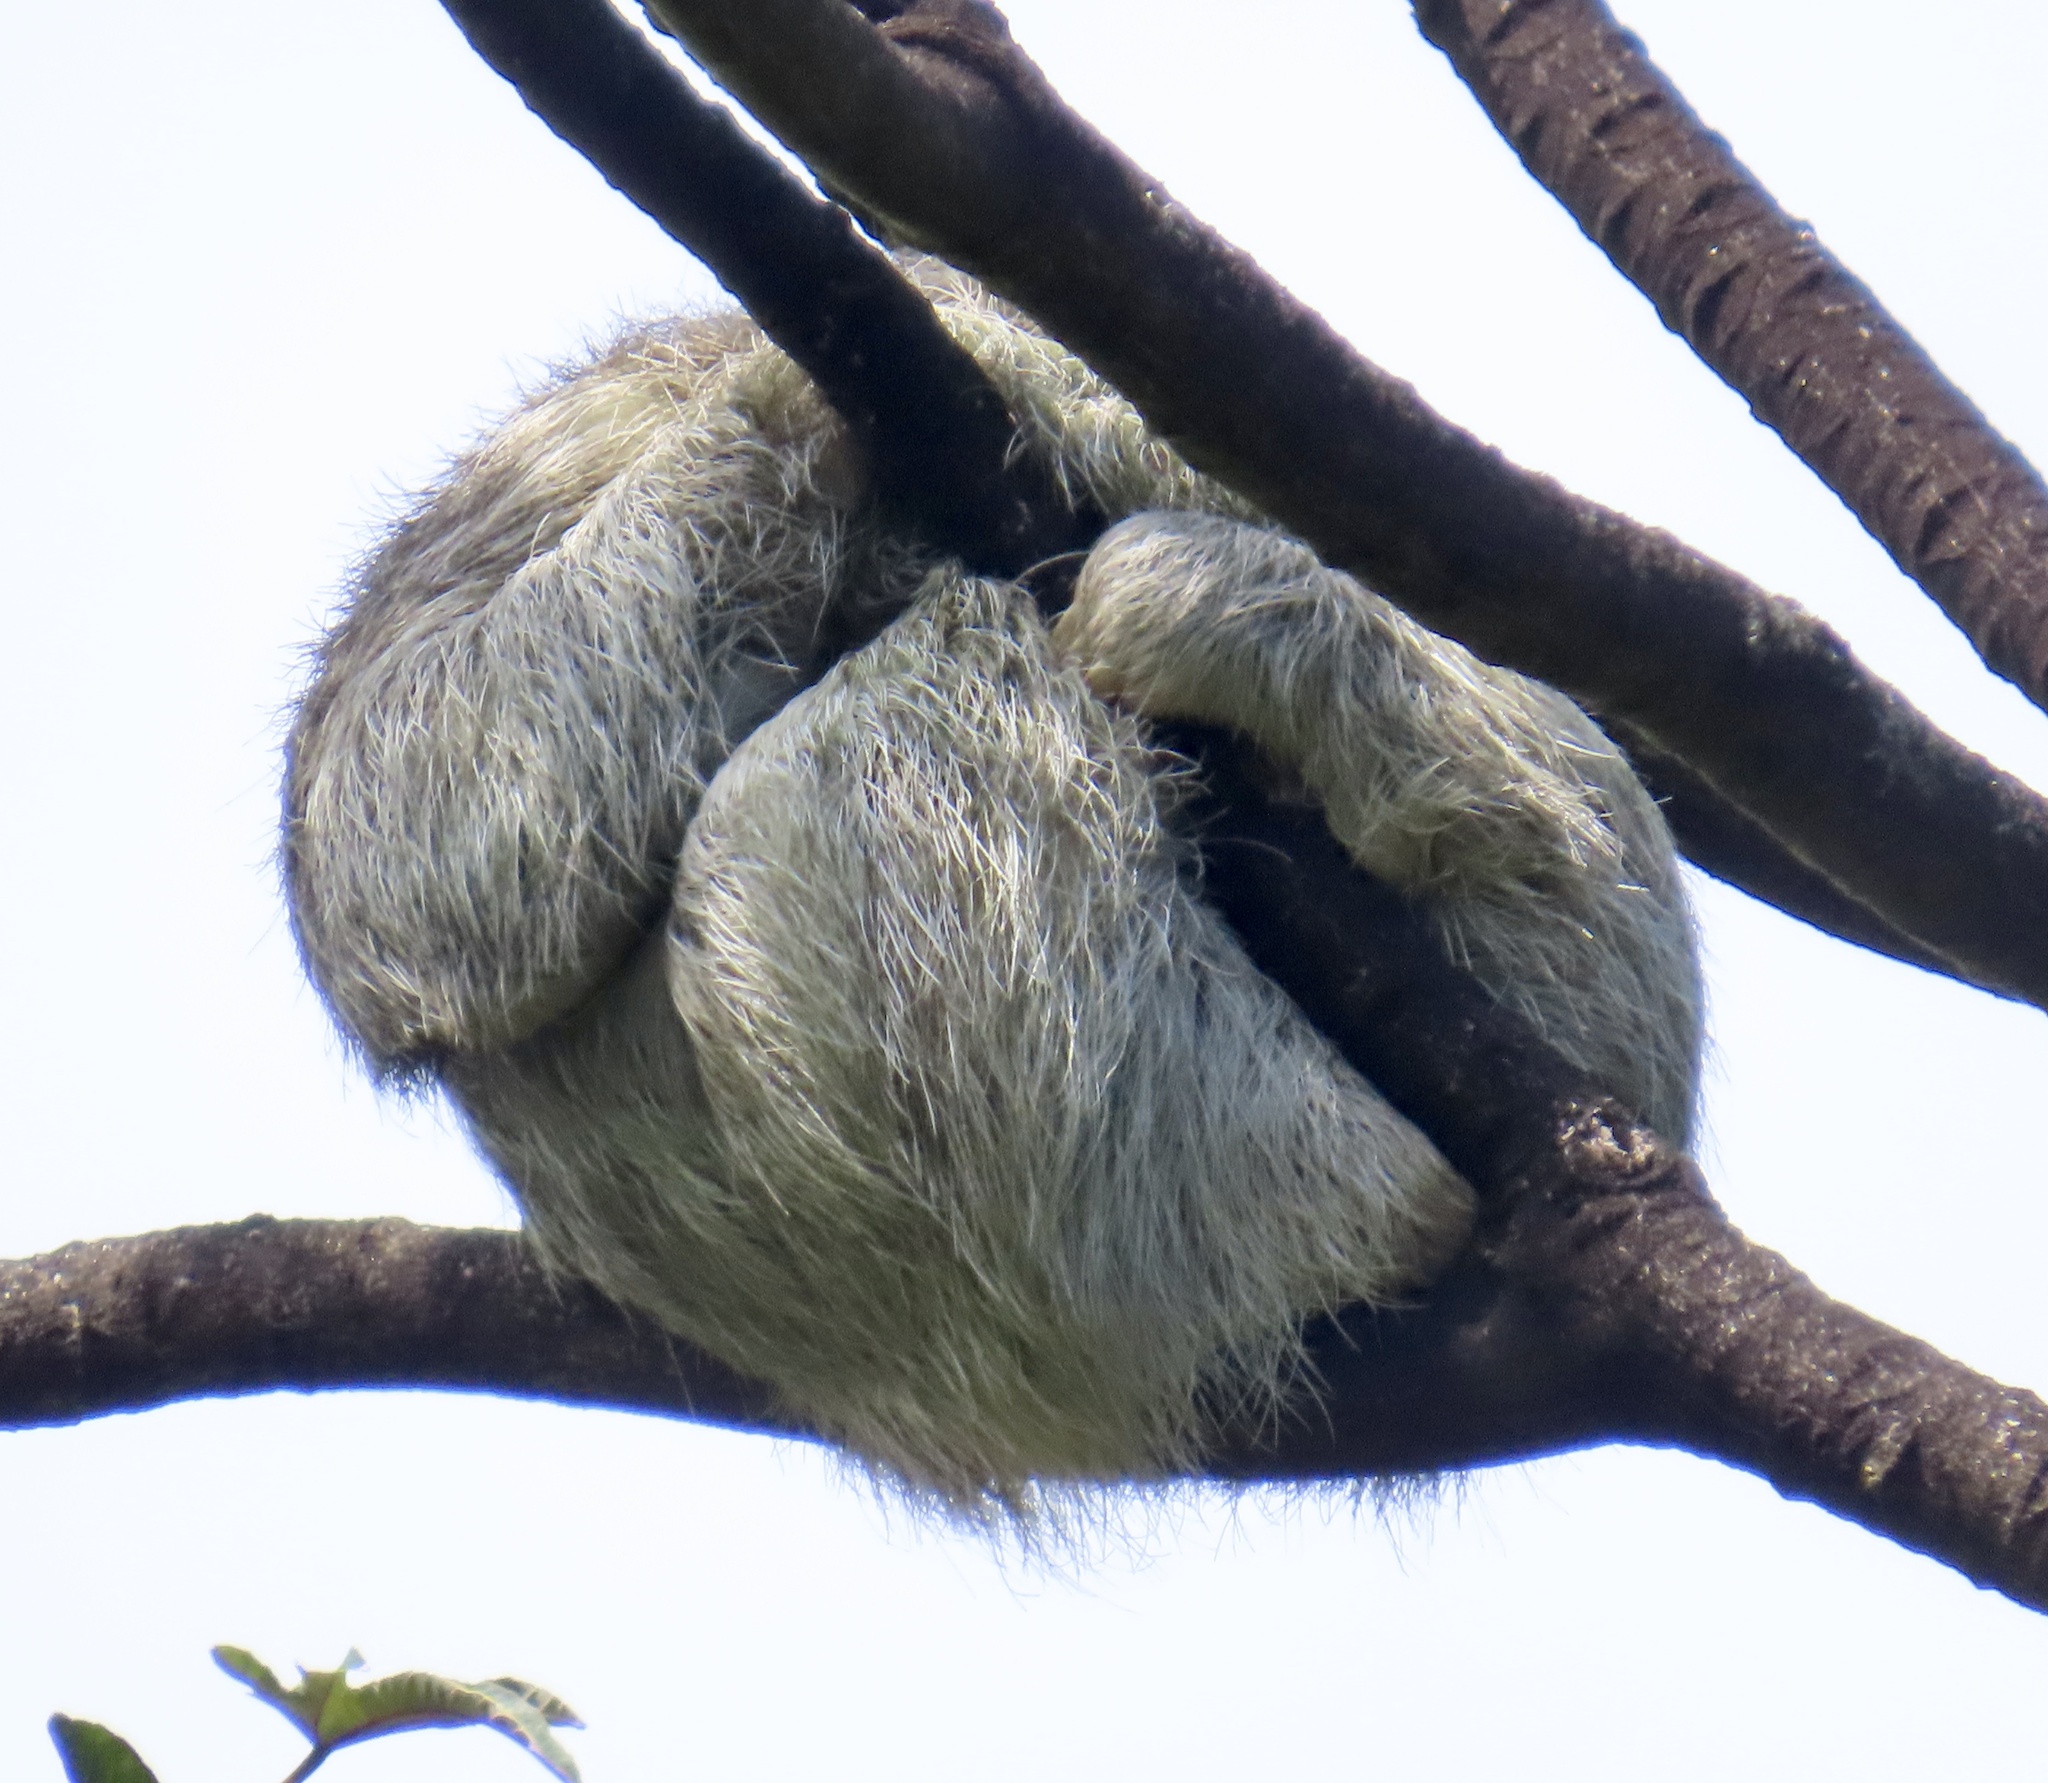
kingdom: Animalia
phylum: Chordata
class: Mammalia
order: Pilosa
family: Bradypodidae
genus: Bradypus
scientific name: Bradypus variegatus
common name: Brown-throated three-toed sloth
